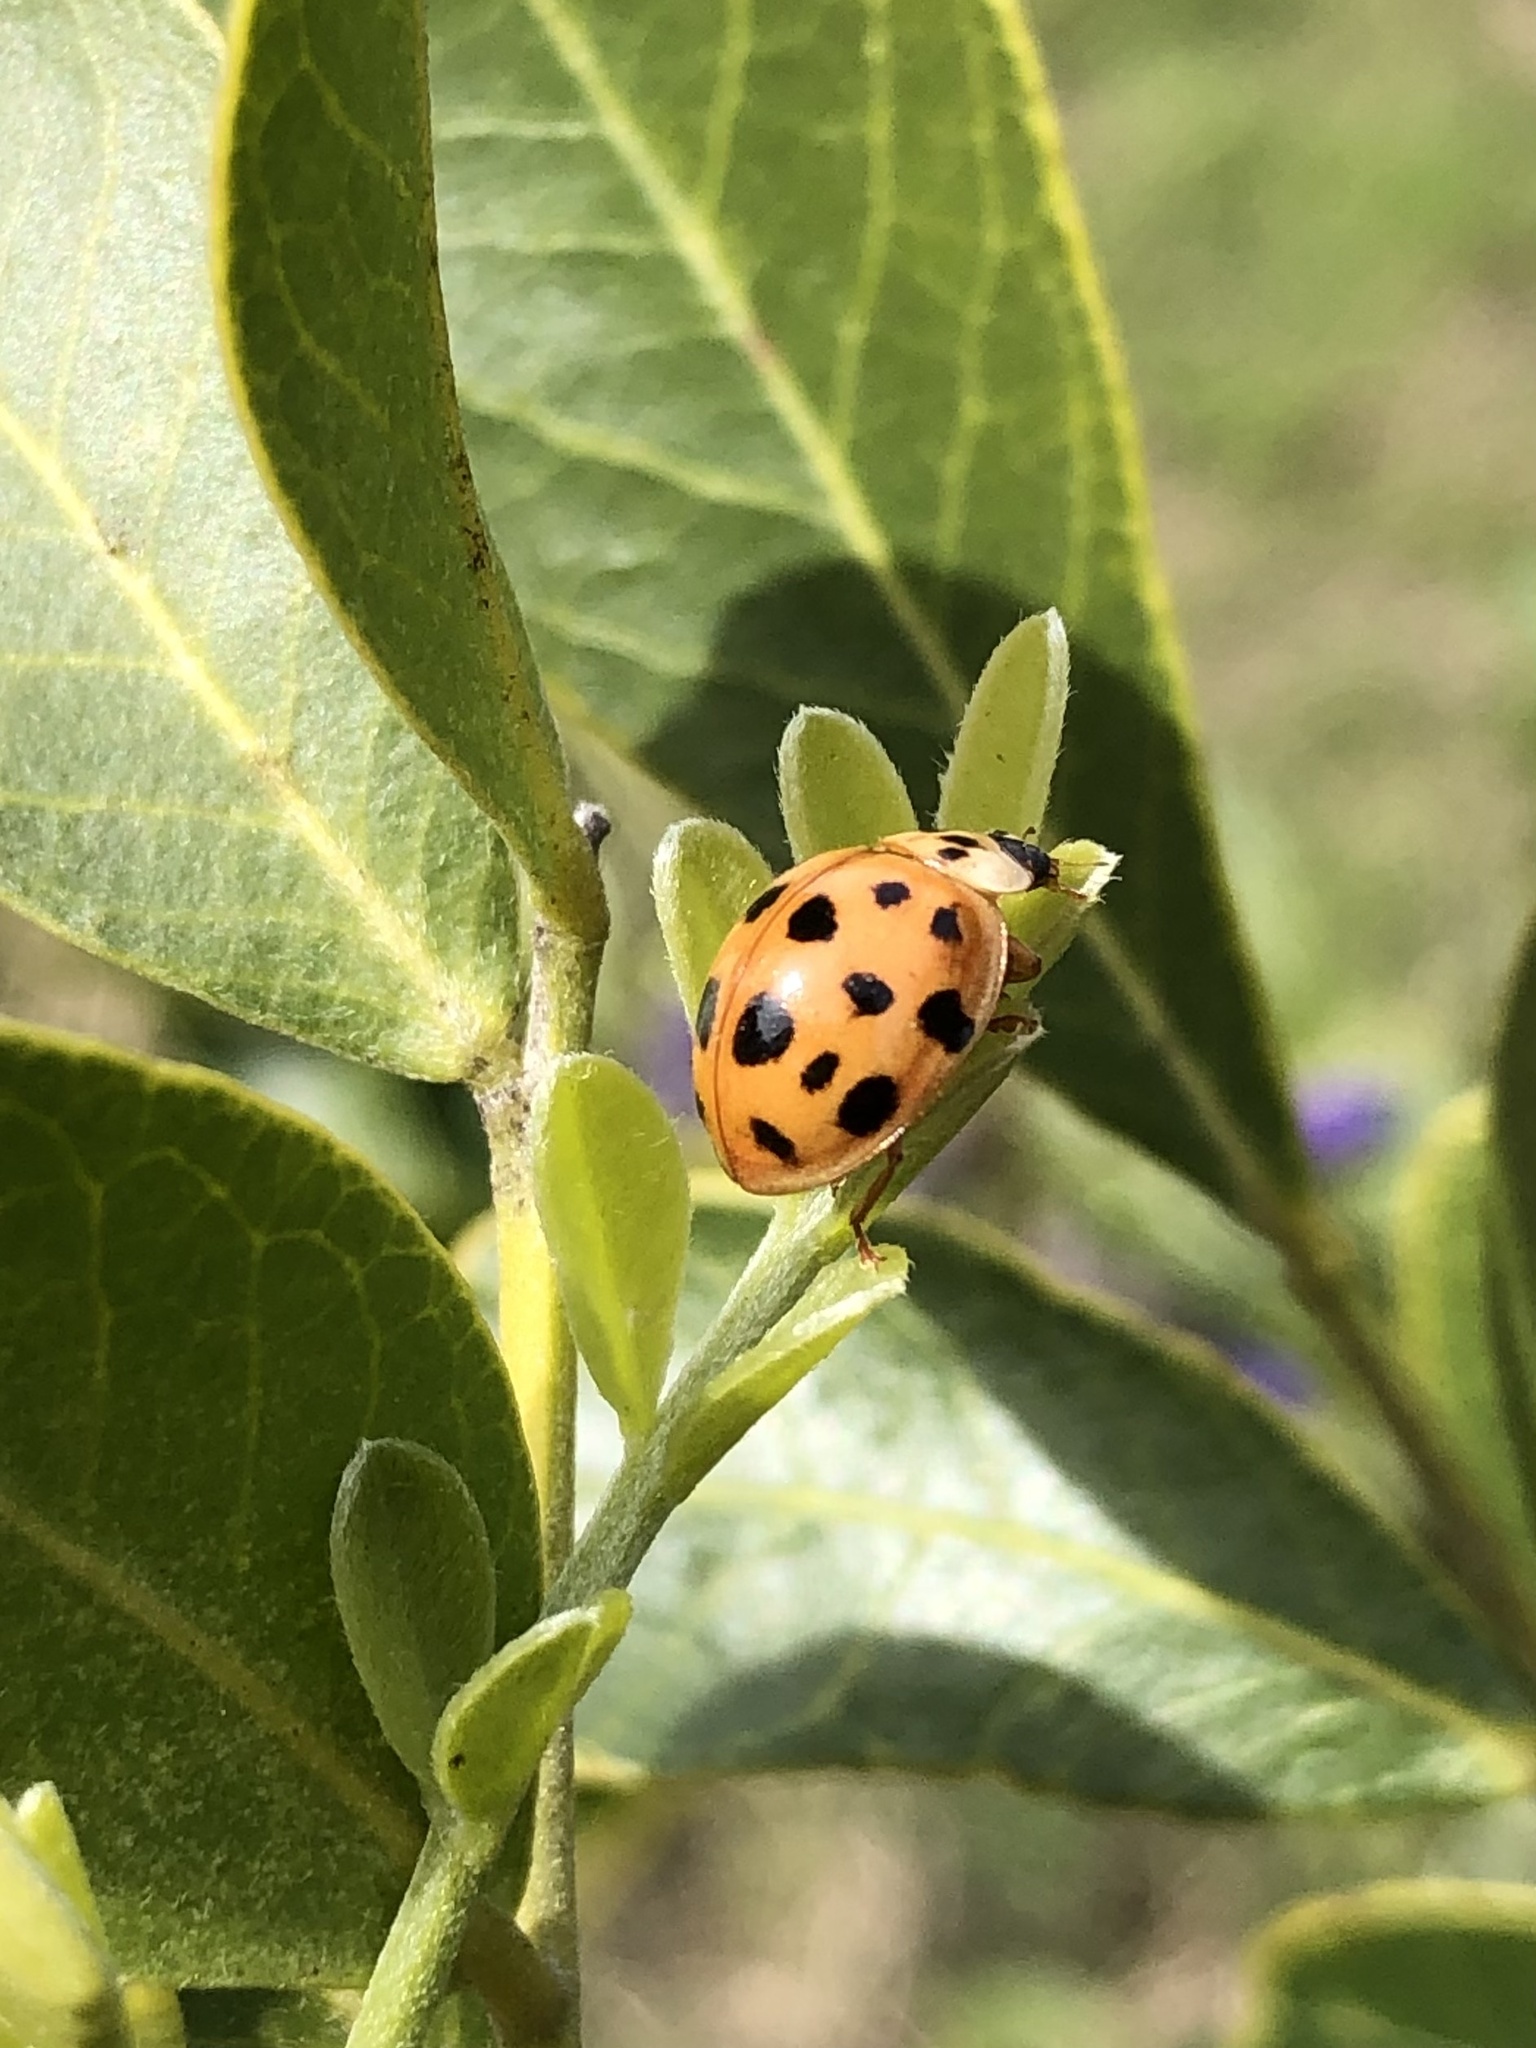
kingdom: Animalia
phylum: Arthropoda
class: Insecta
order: Coleoptera
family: Coccinellidae
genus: Harmonia
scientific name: Harmonia axyridis
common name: Harlequin ladybird
